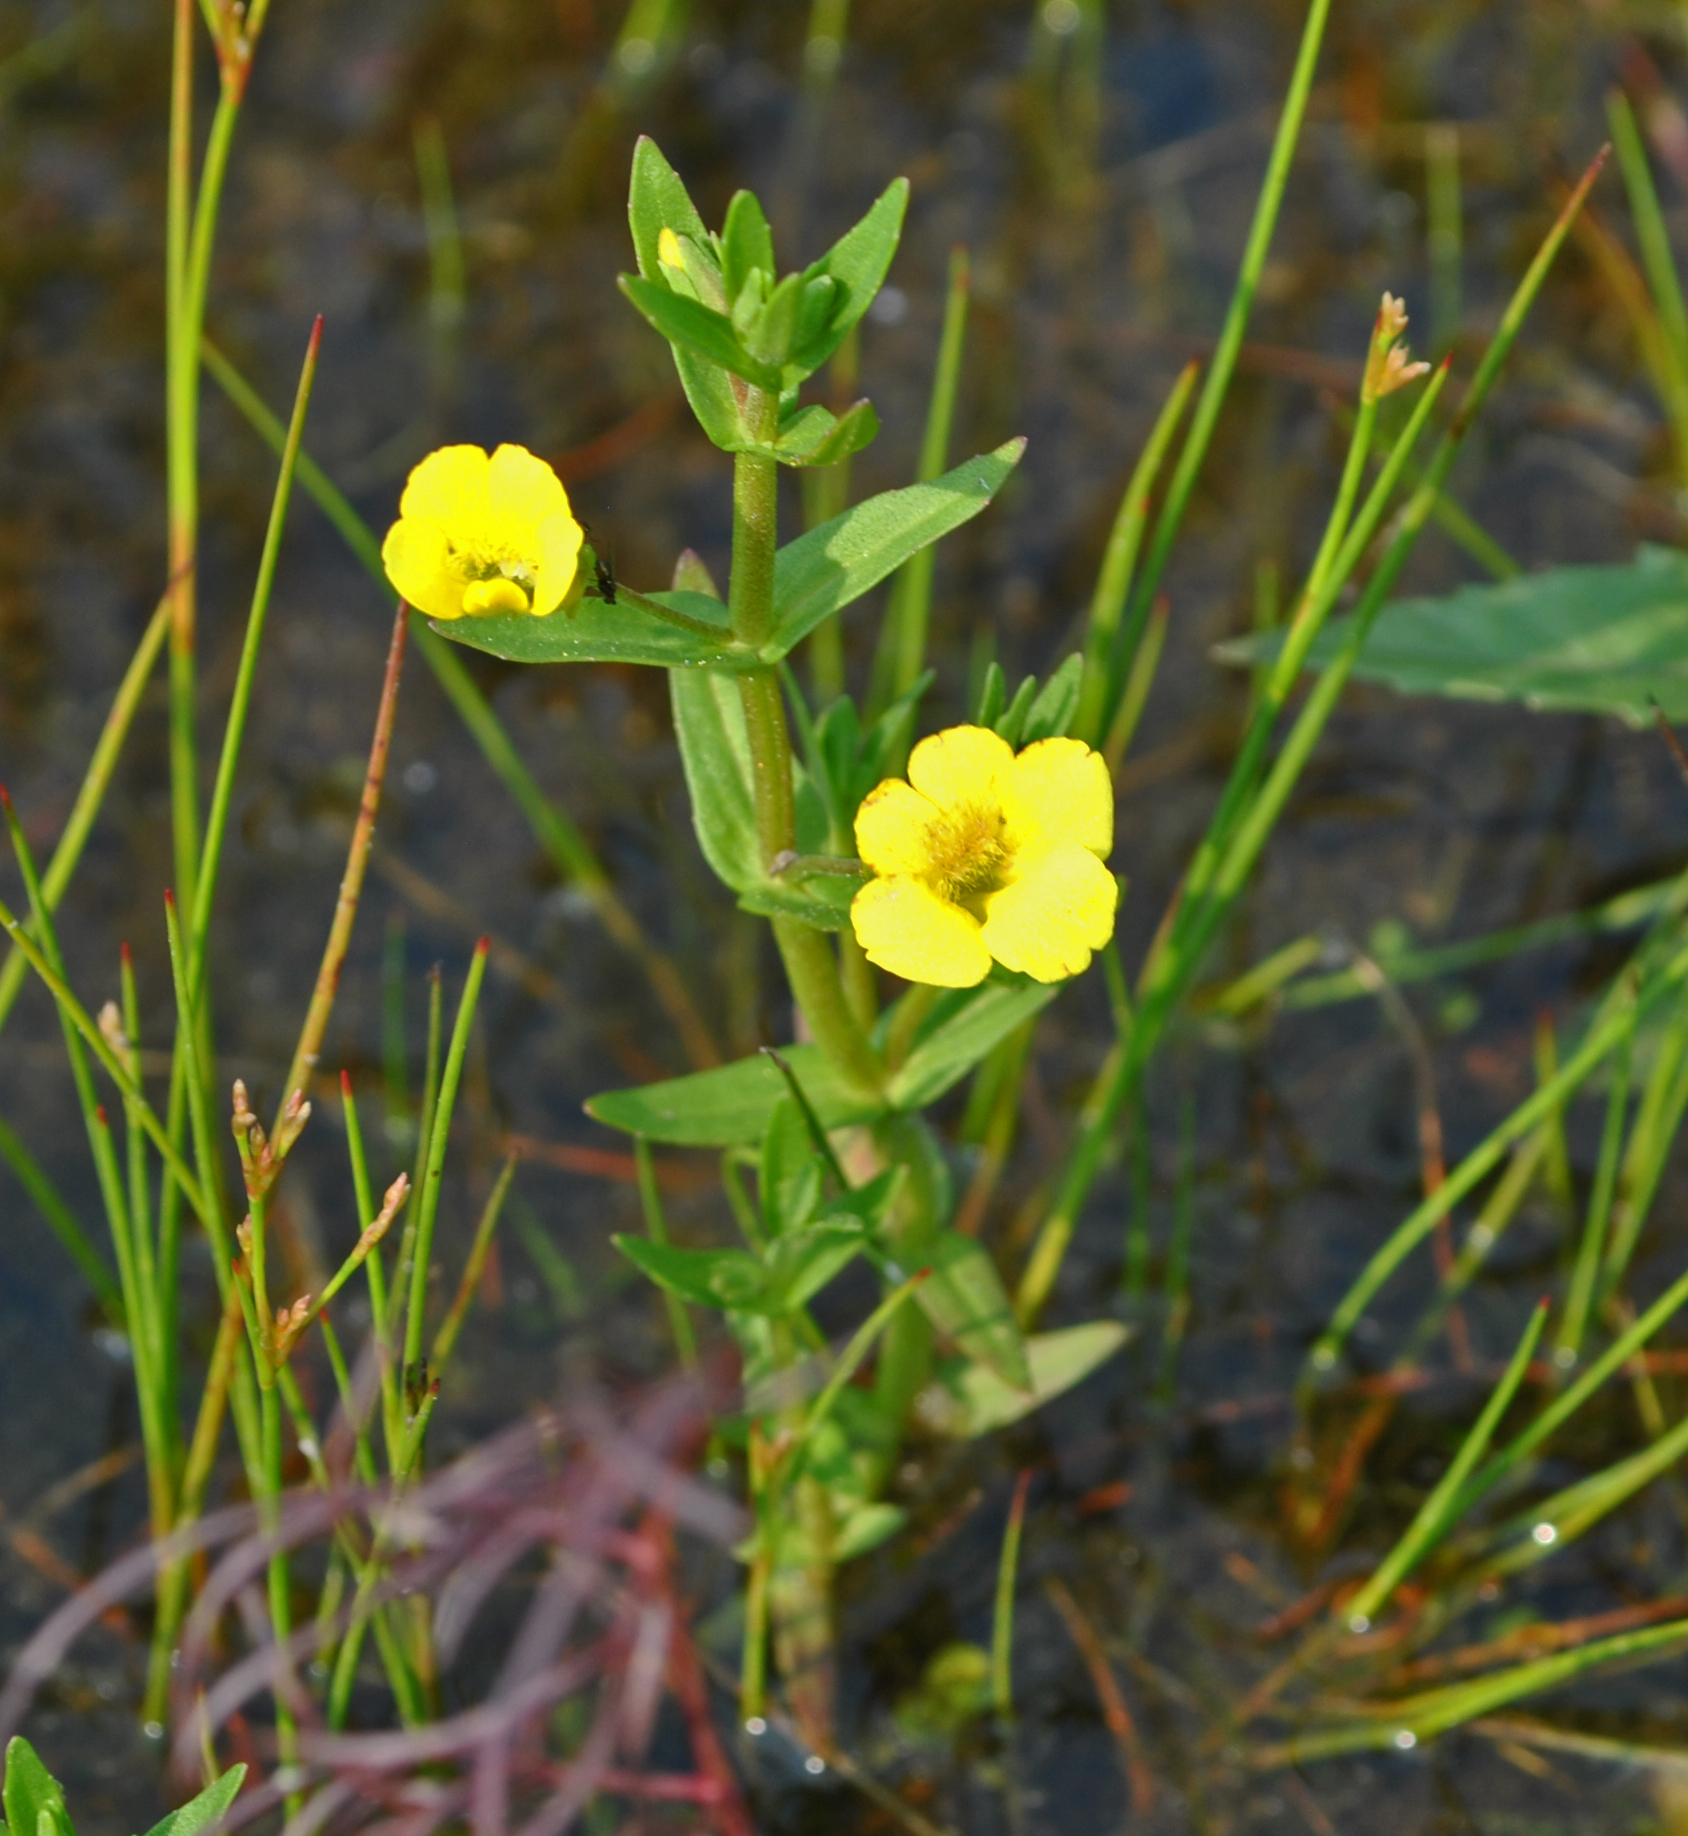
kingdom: Plantae
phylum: Tracheophyta
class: Magnoliopsida
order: Lamiales
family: Plantaginaceae
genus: Gratiola
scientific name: Gratiola lutea
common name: Golden hedge-hyssop
